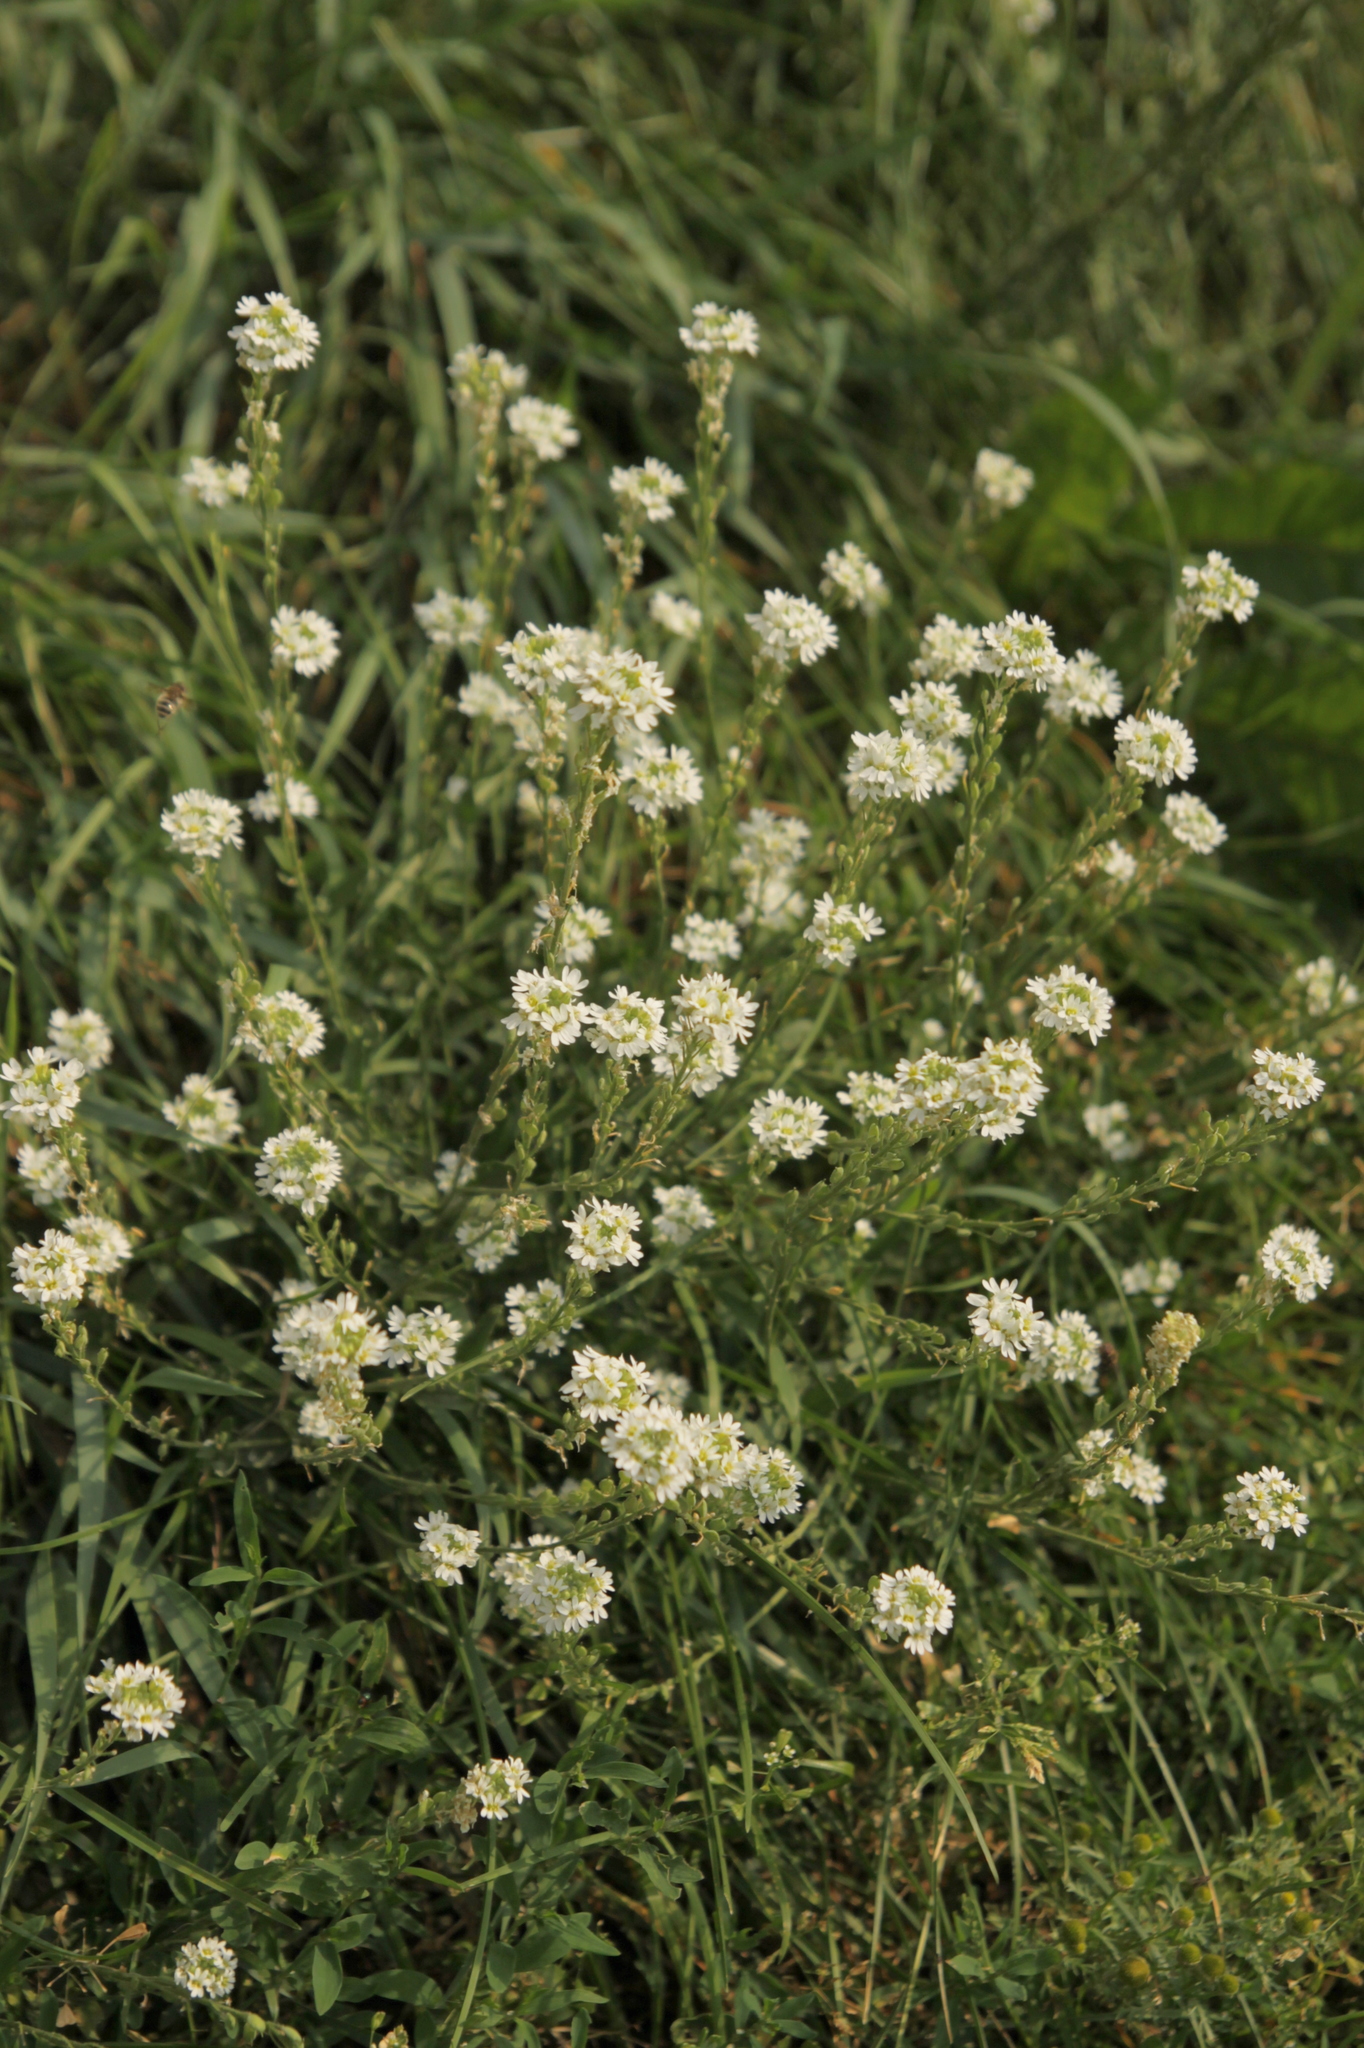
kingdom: Plantae
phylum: Tracheophyta
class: Magnoliopsida
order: Brassicales
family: Brassicaceae
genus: Berteroa
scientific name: Berteroa incana
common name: Hoary alison
